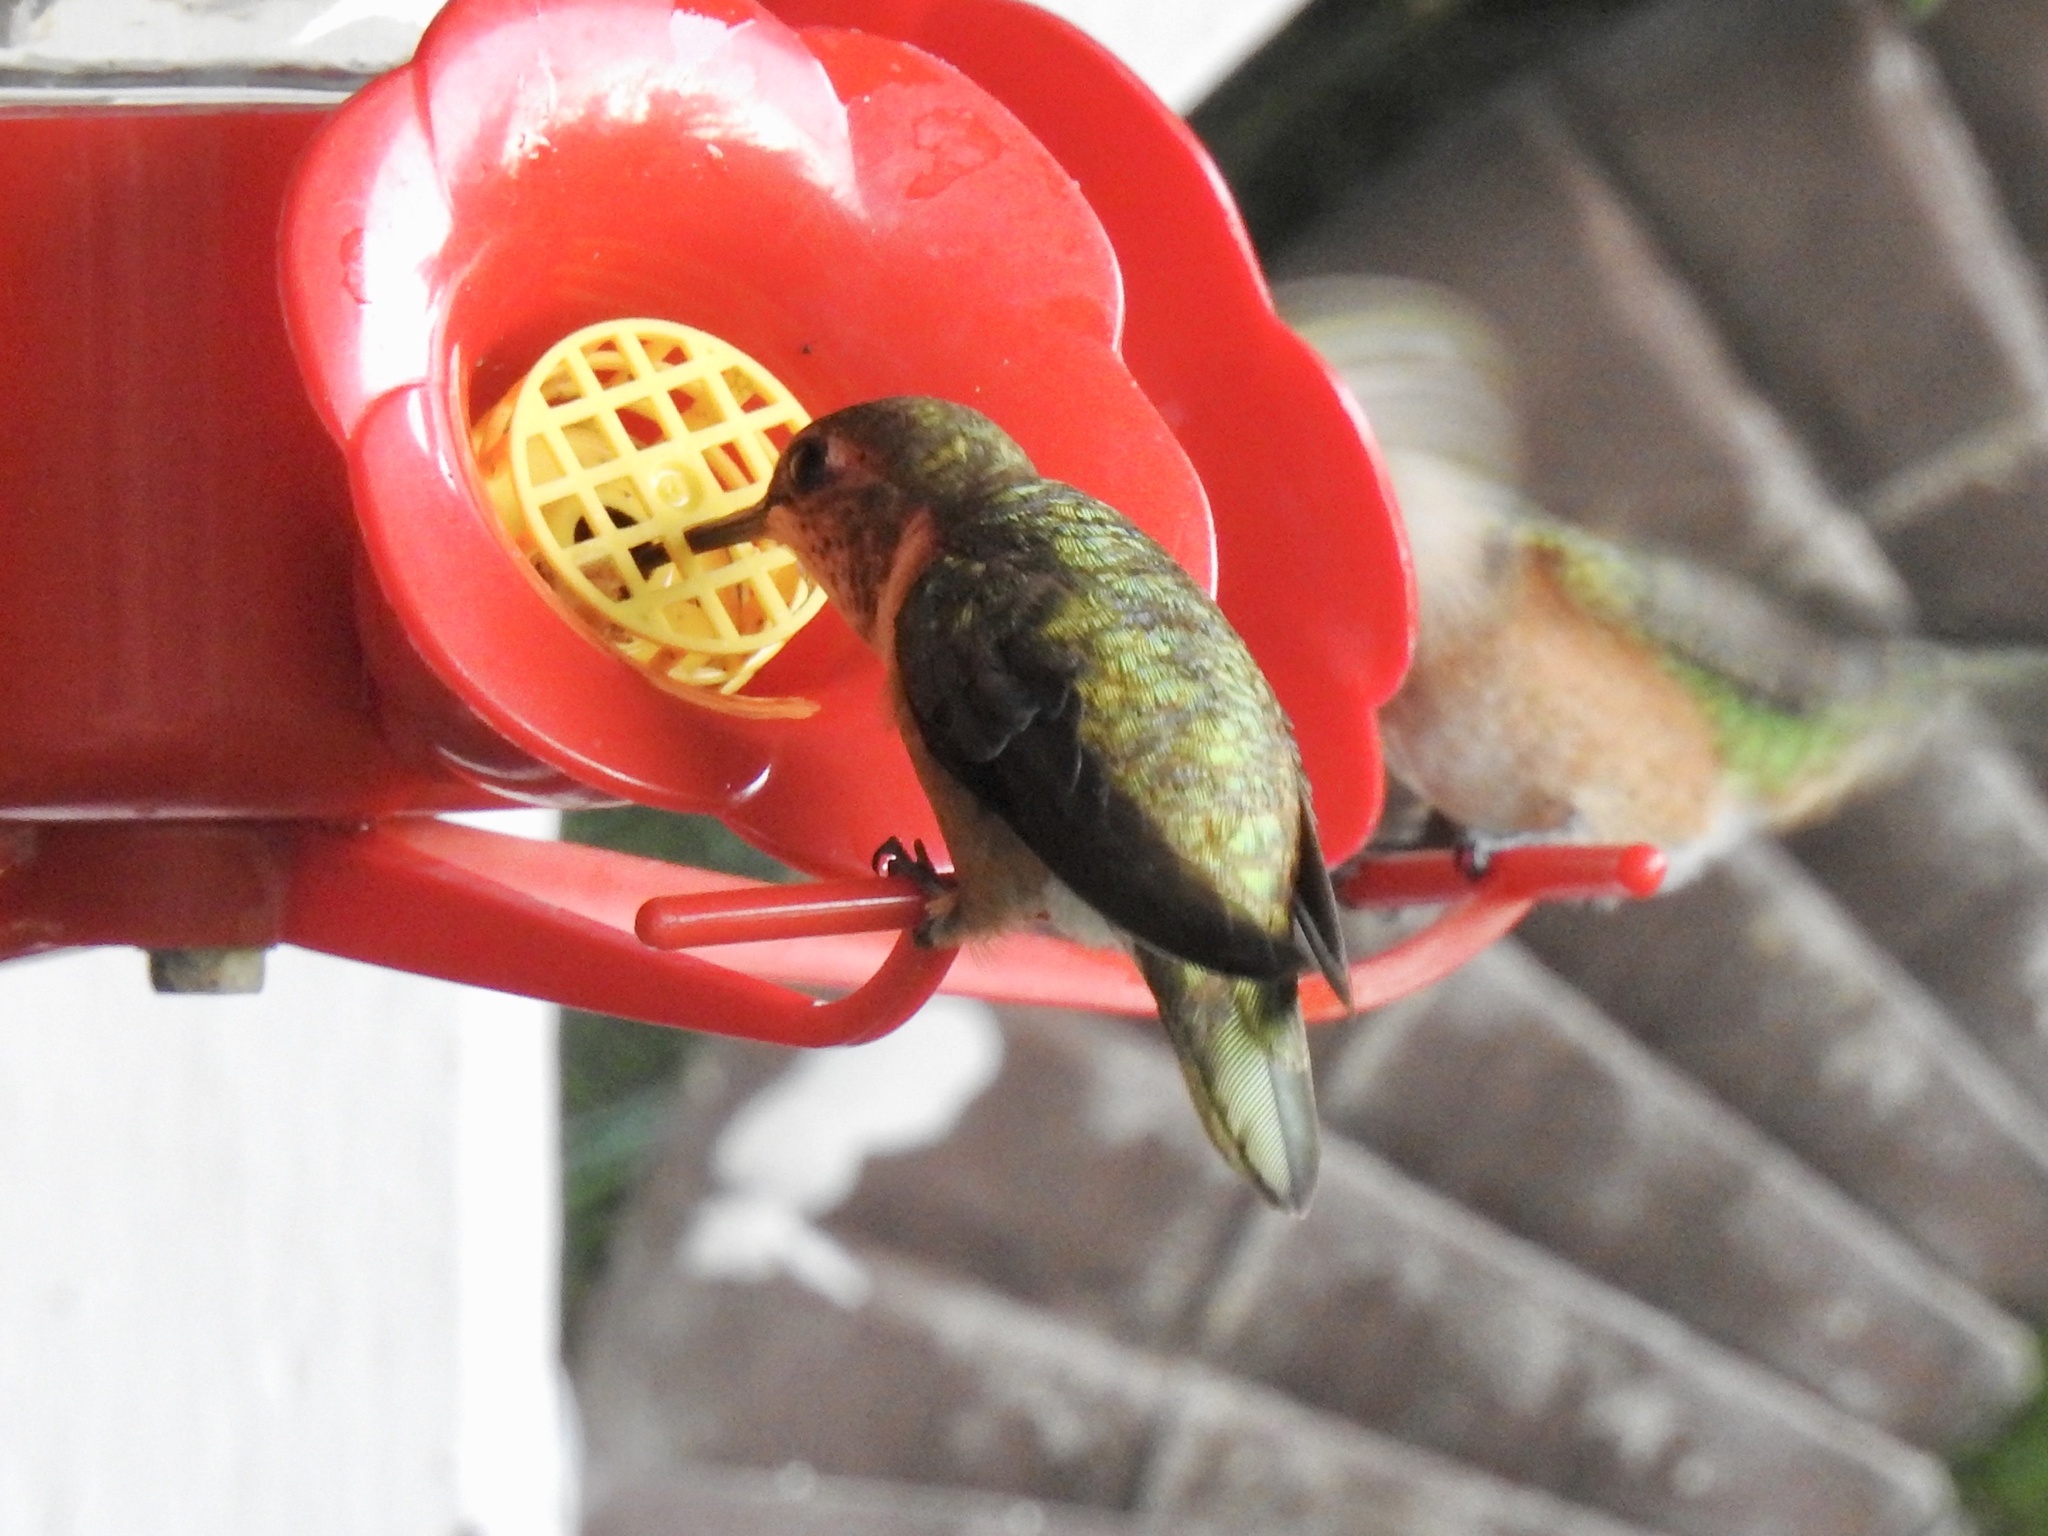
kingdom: Animalia
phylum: Chordata
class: Aves
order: Apodiformes
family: Trochilidae
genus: Selasphorus
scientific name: Selasphorus platycercus
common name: Broad-tailed hummingbird
